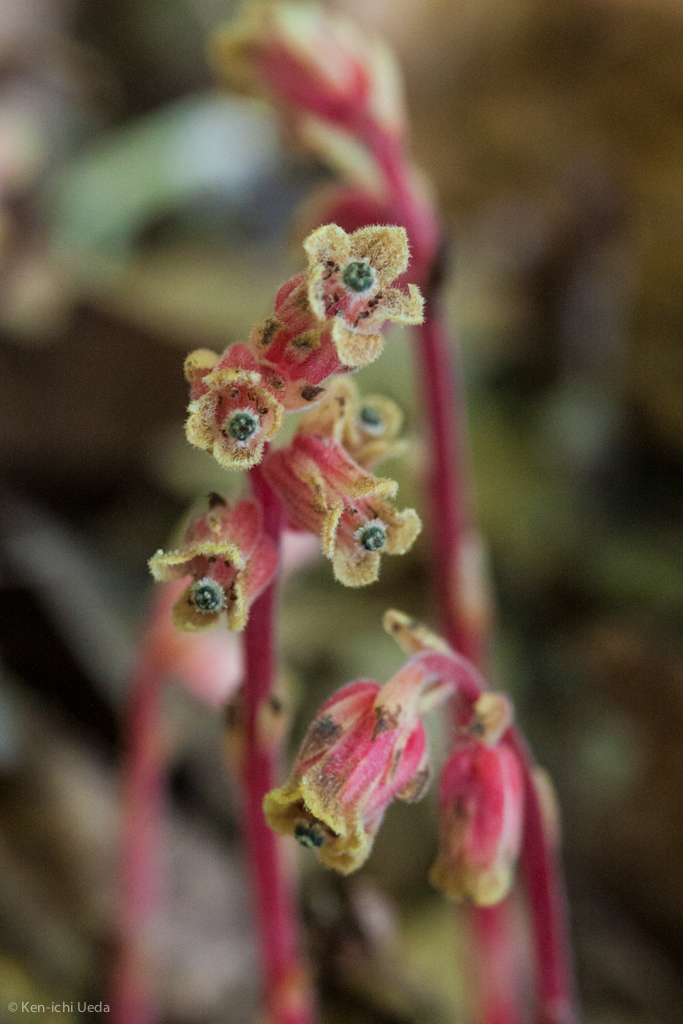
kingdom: Plantae
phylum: Tracheophyta
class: Magnoliopsida
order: Ericales
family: Ericaceae
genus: Hypopitys
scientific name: Hypopitys monotropa
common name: Yellow bird's-nest
